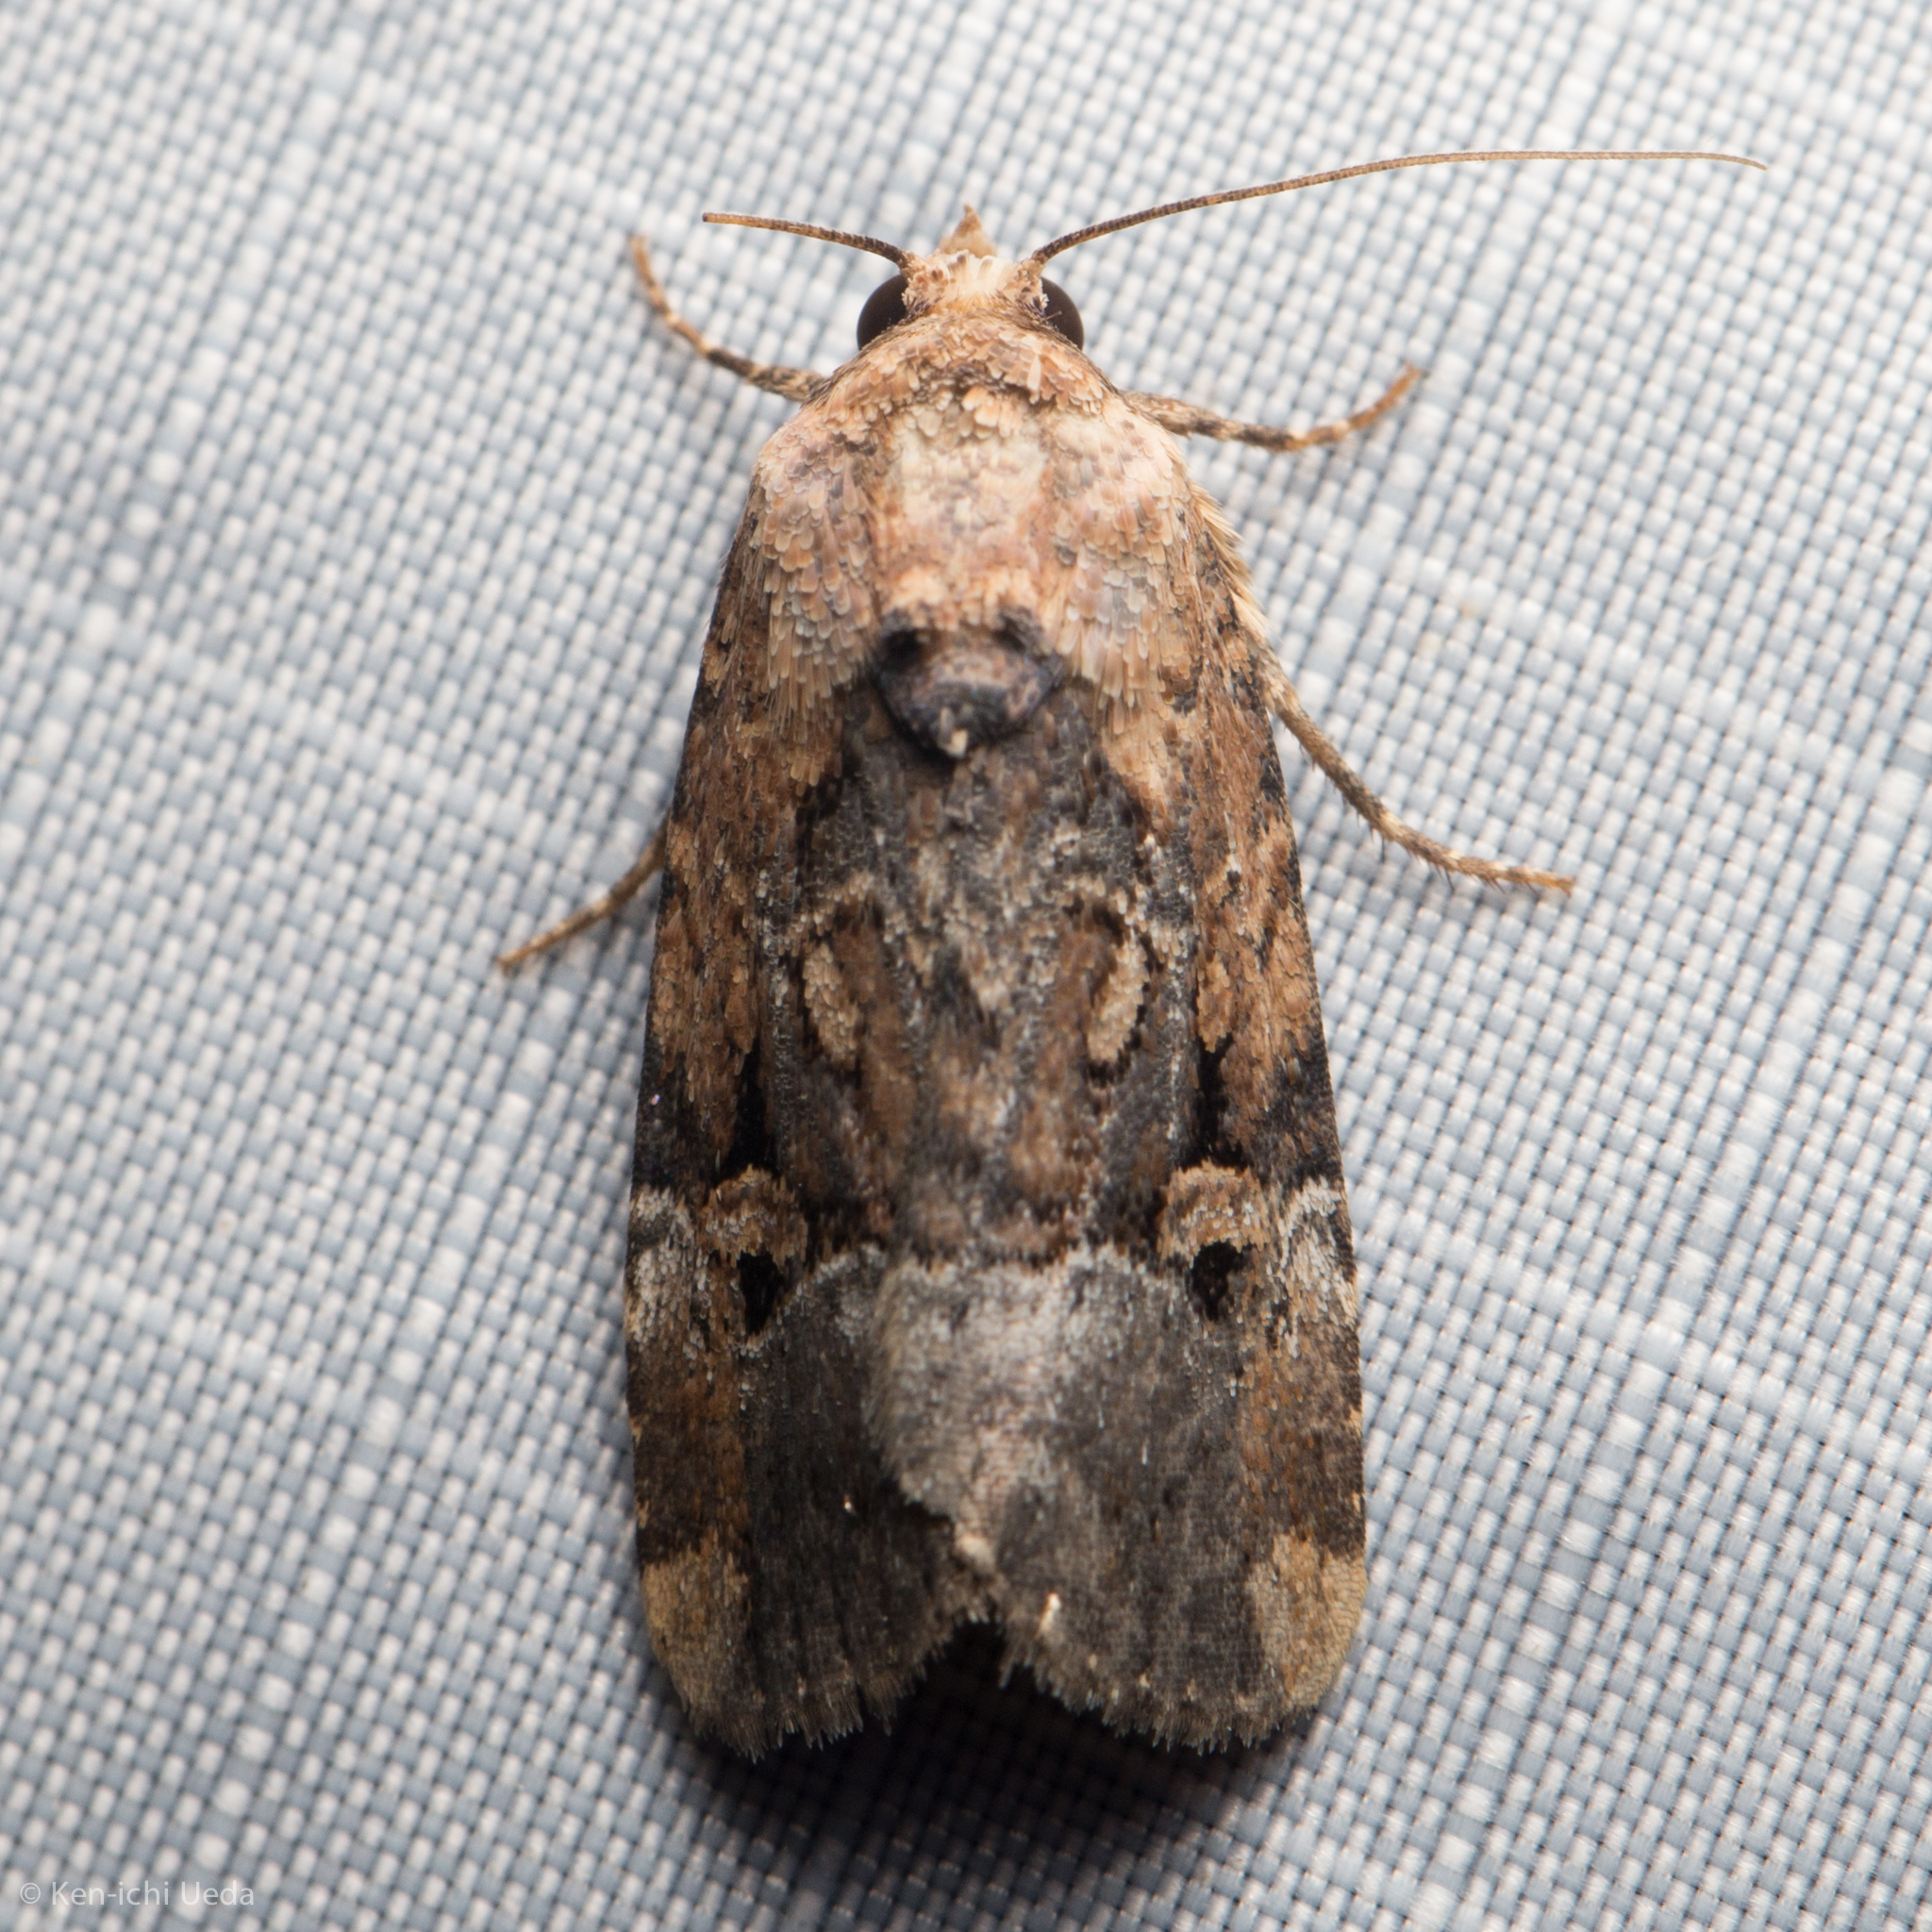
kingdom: Animalia
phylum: Arthropoda
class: Insecta
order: Lepidoptera
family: Noctuidae
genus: Elaphria
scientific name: Elaphria chalcedonia
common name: Chalcedony midget
